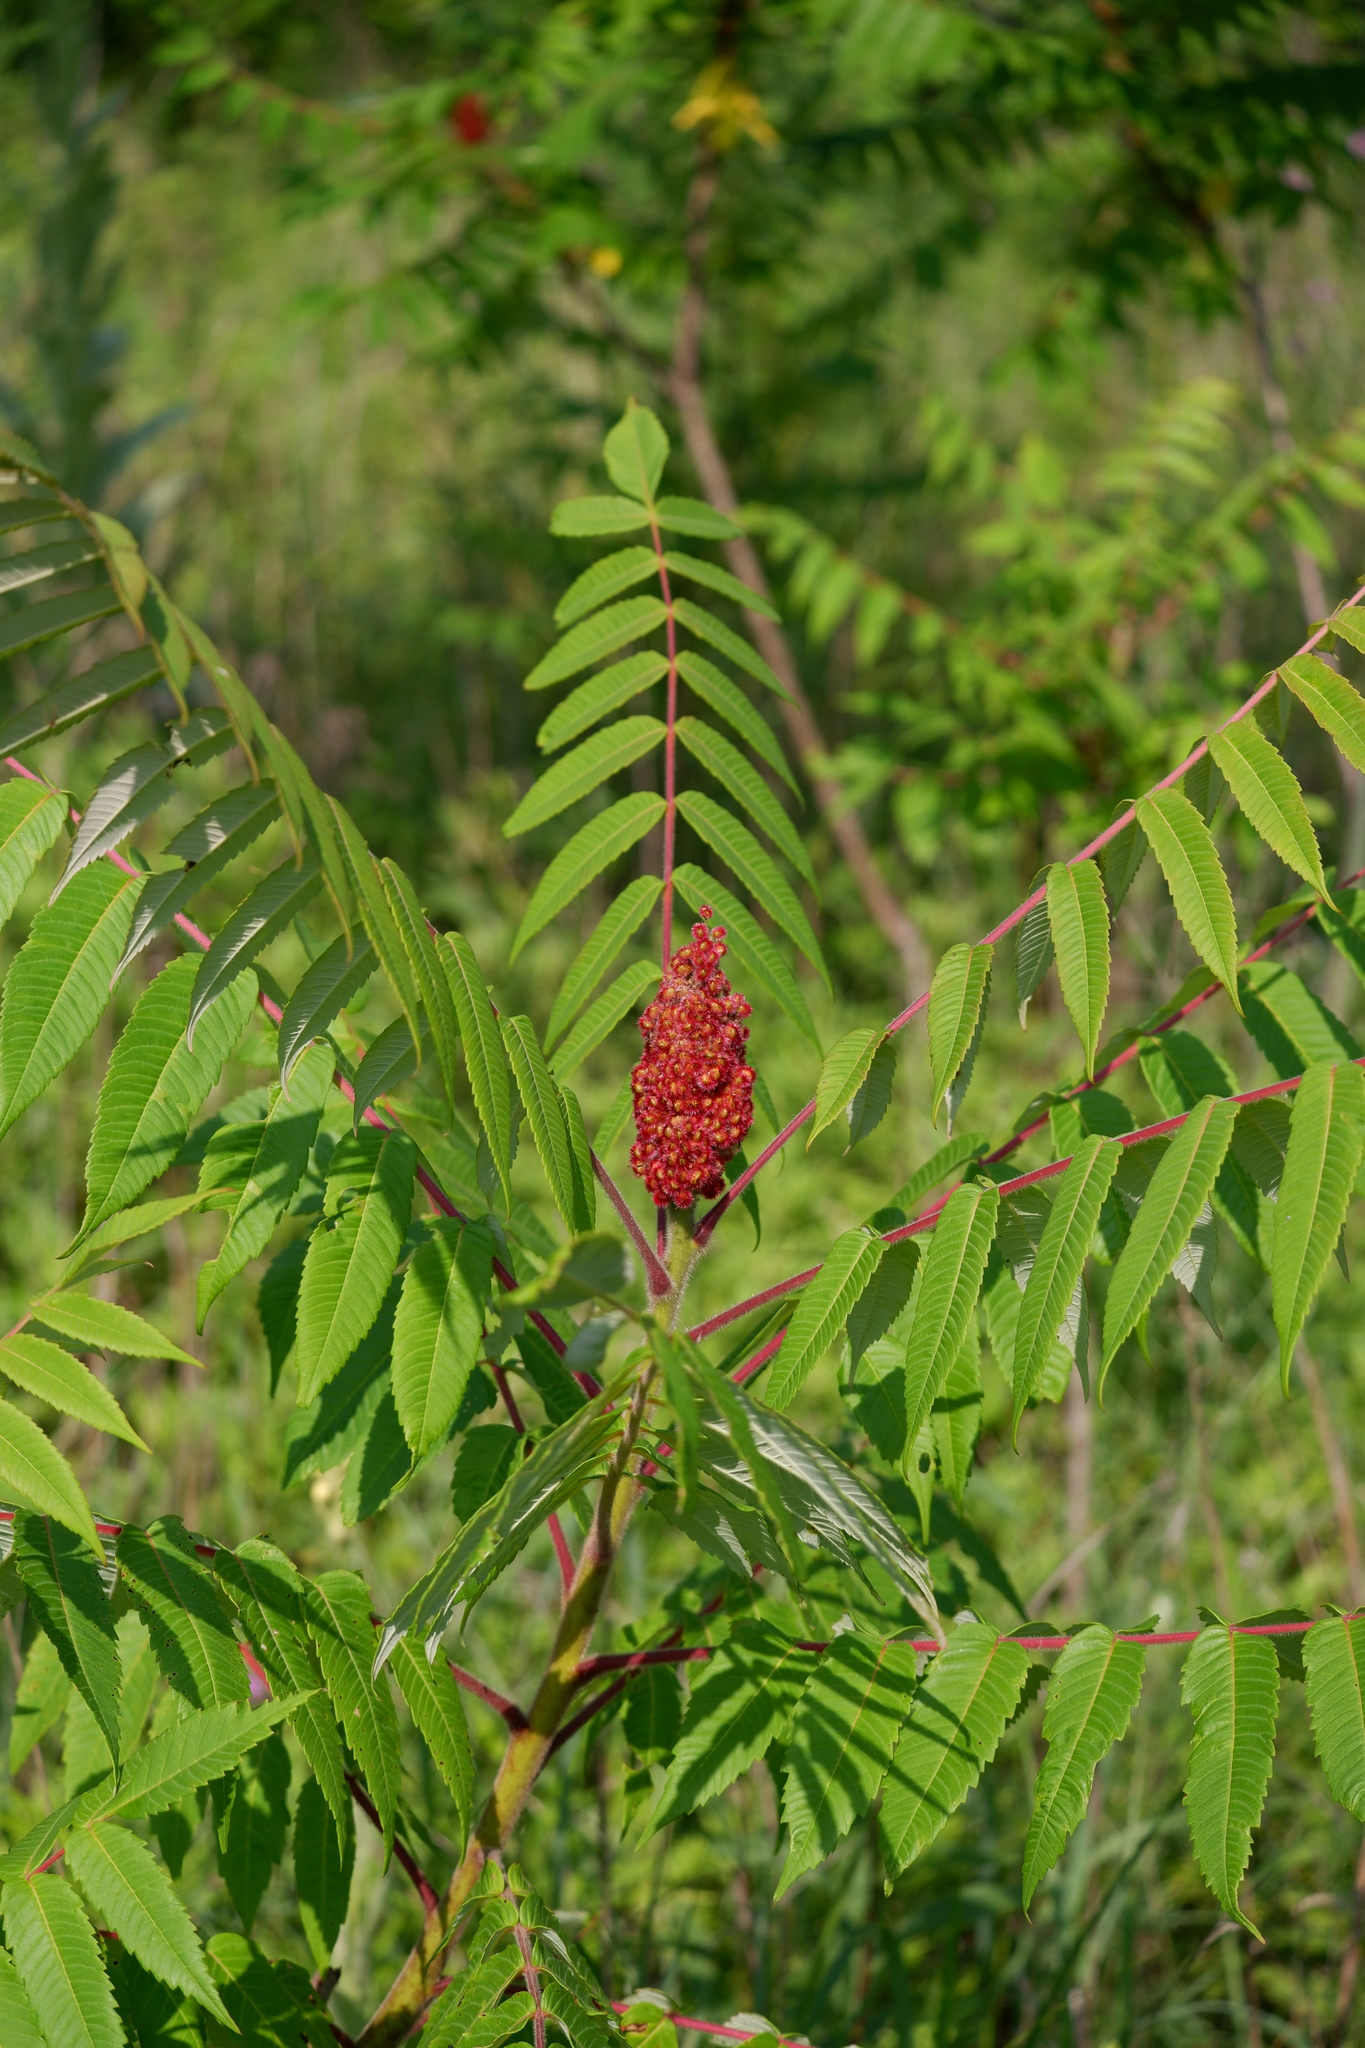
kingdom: Plantae
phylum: Tracheophyta
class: Magnoliopsida
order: Sapindales
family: Anacardiaceae
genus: Rhus
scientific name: Rhus typhina
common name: Staghorn sumac
